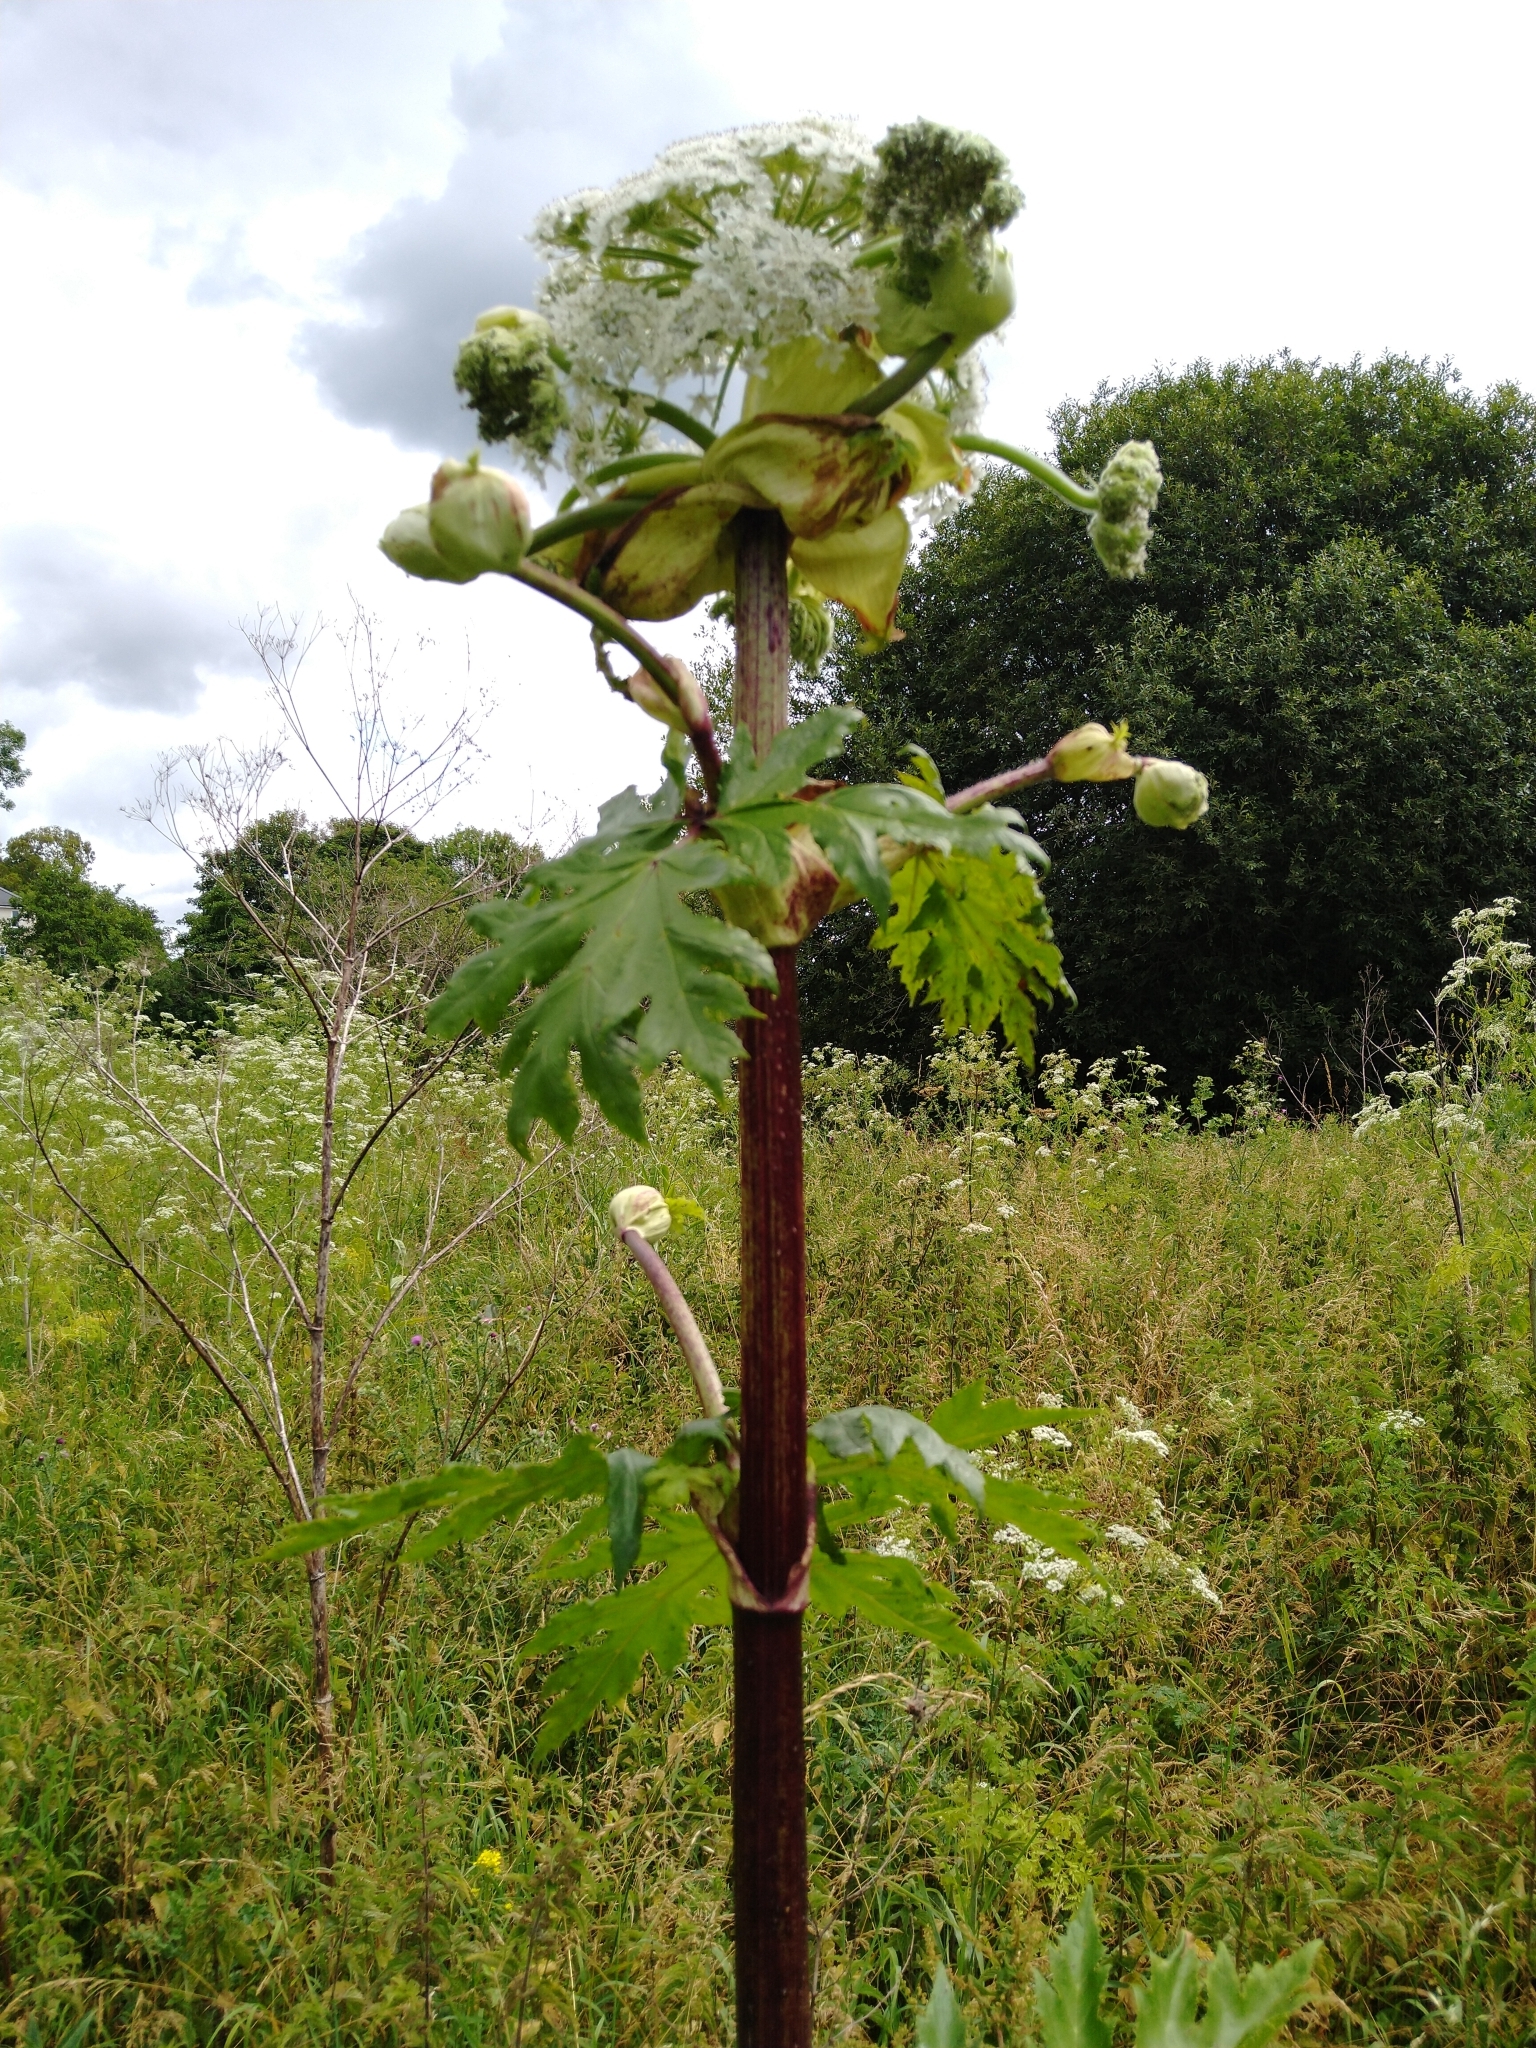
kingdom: Plantae
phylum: Tracheophyta
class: Magnoliopsida
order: Apiales
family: Apiaceae
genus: Heracleum
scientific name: Heracleum mantegazzianum
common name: Giant hogweed
